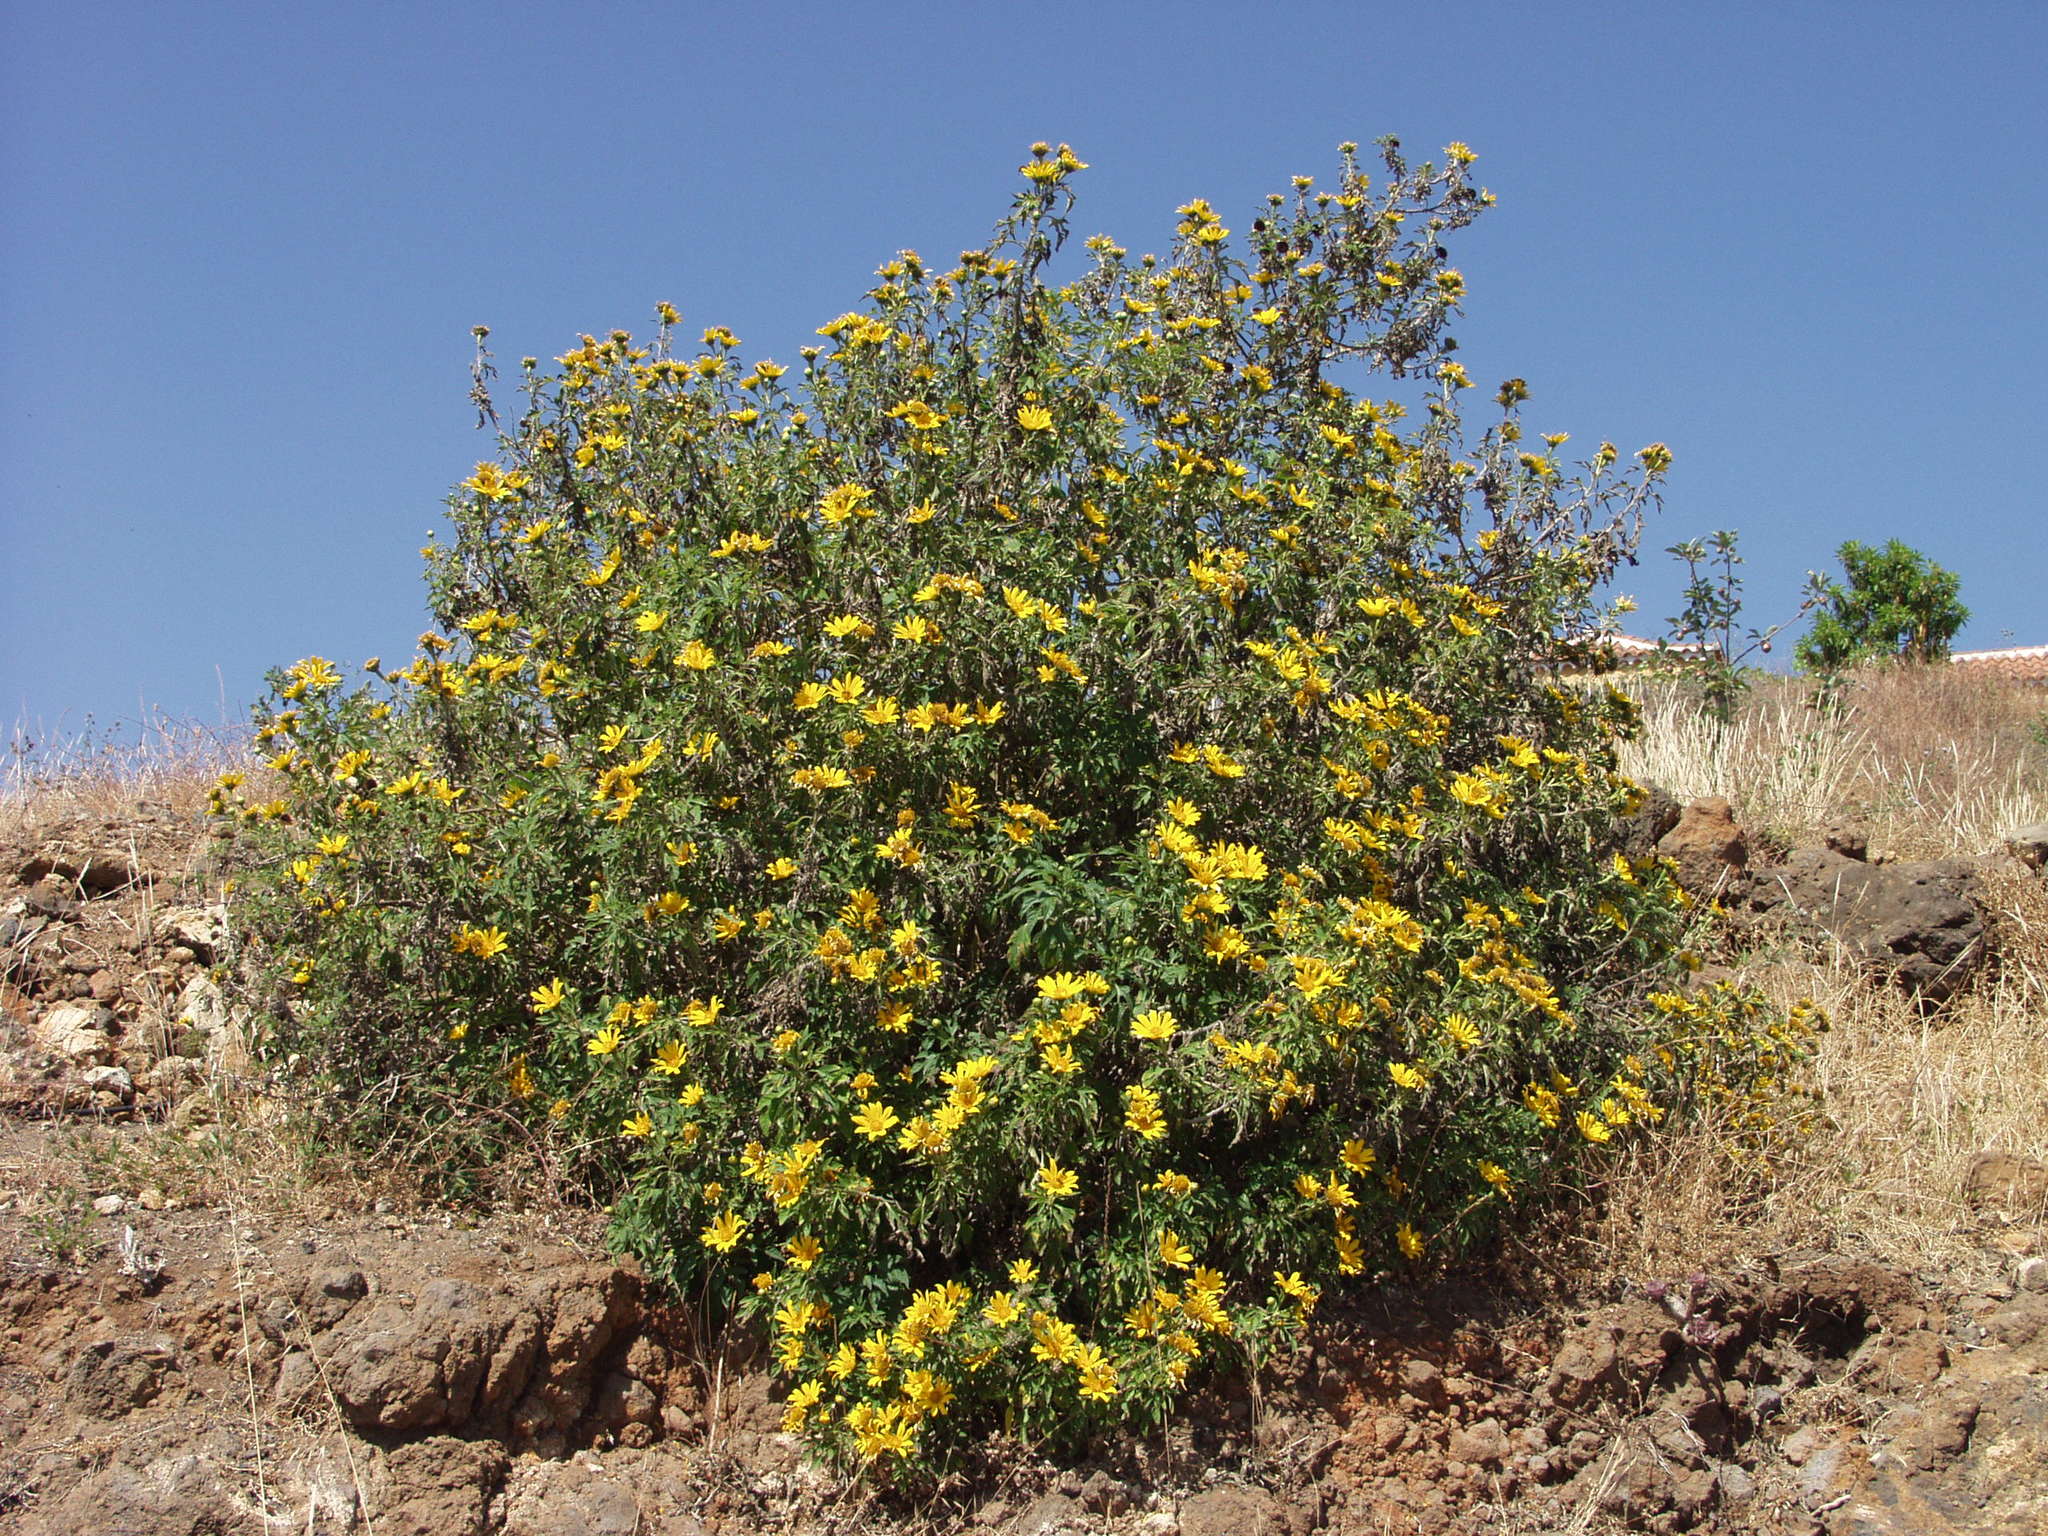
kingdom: Plantae
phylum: Tracheophyta
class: Magnoliopsida
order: Asterales
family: Asteraceae
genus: Tithonia
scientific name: Tithonia diversifolia
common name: Tree marigold
